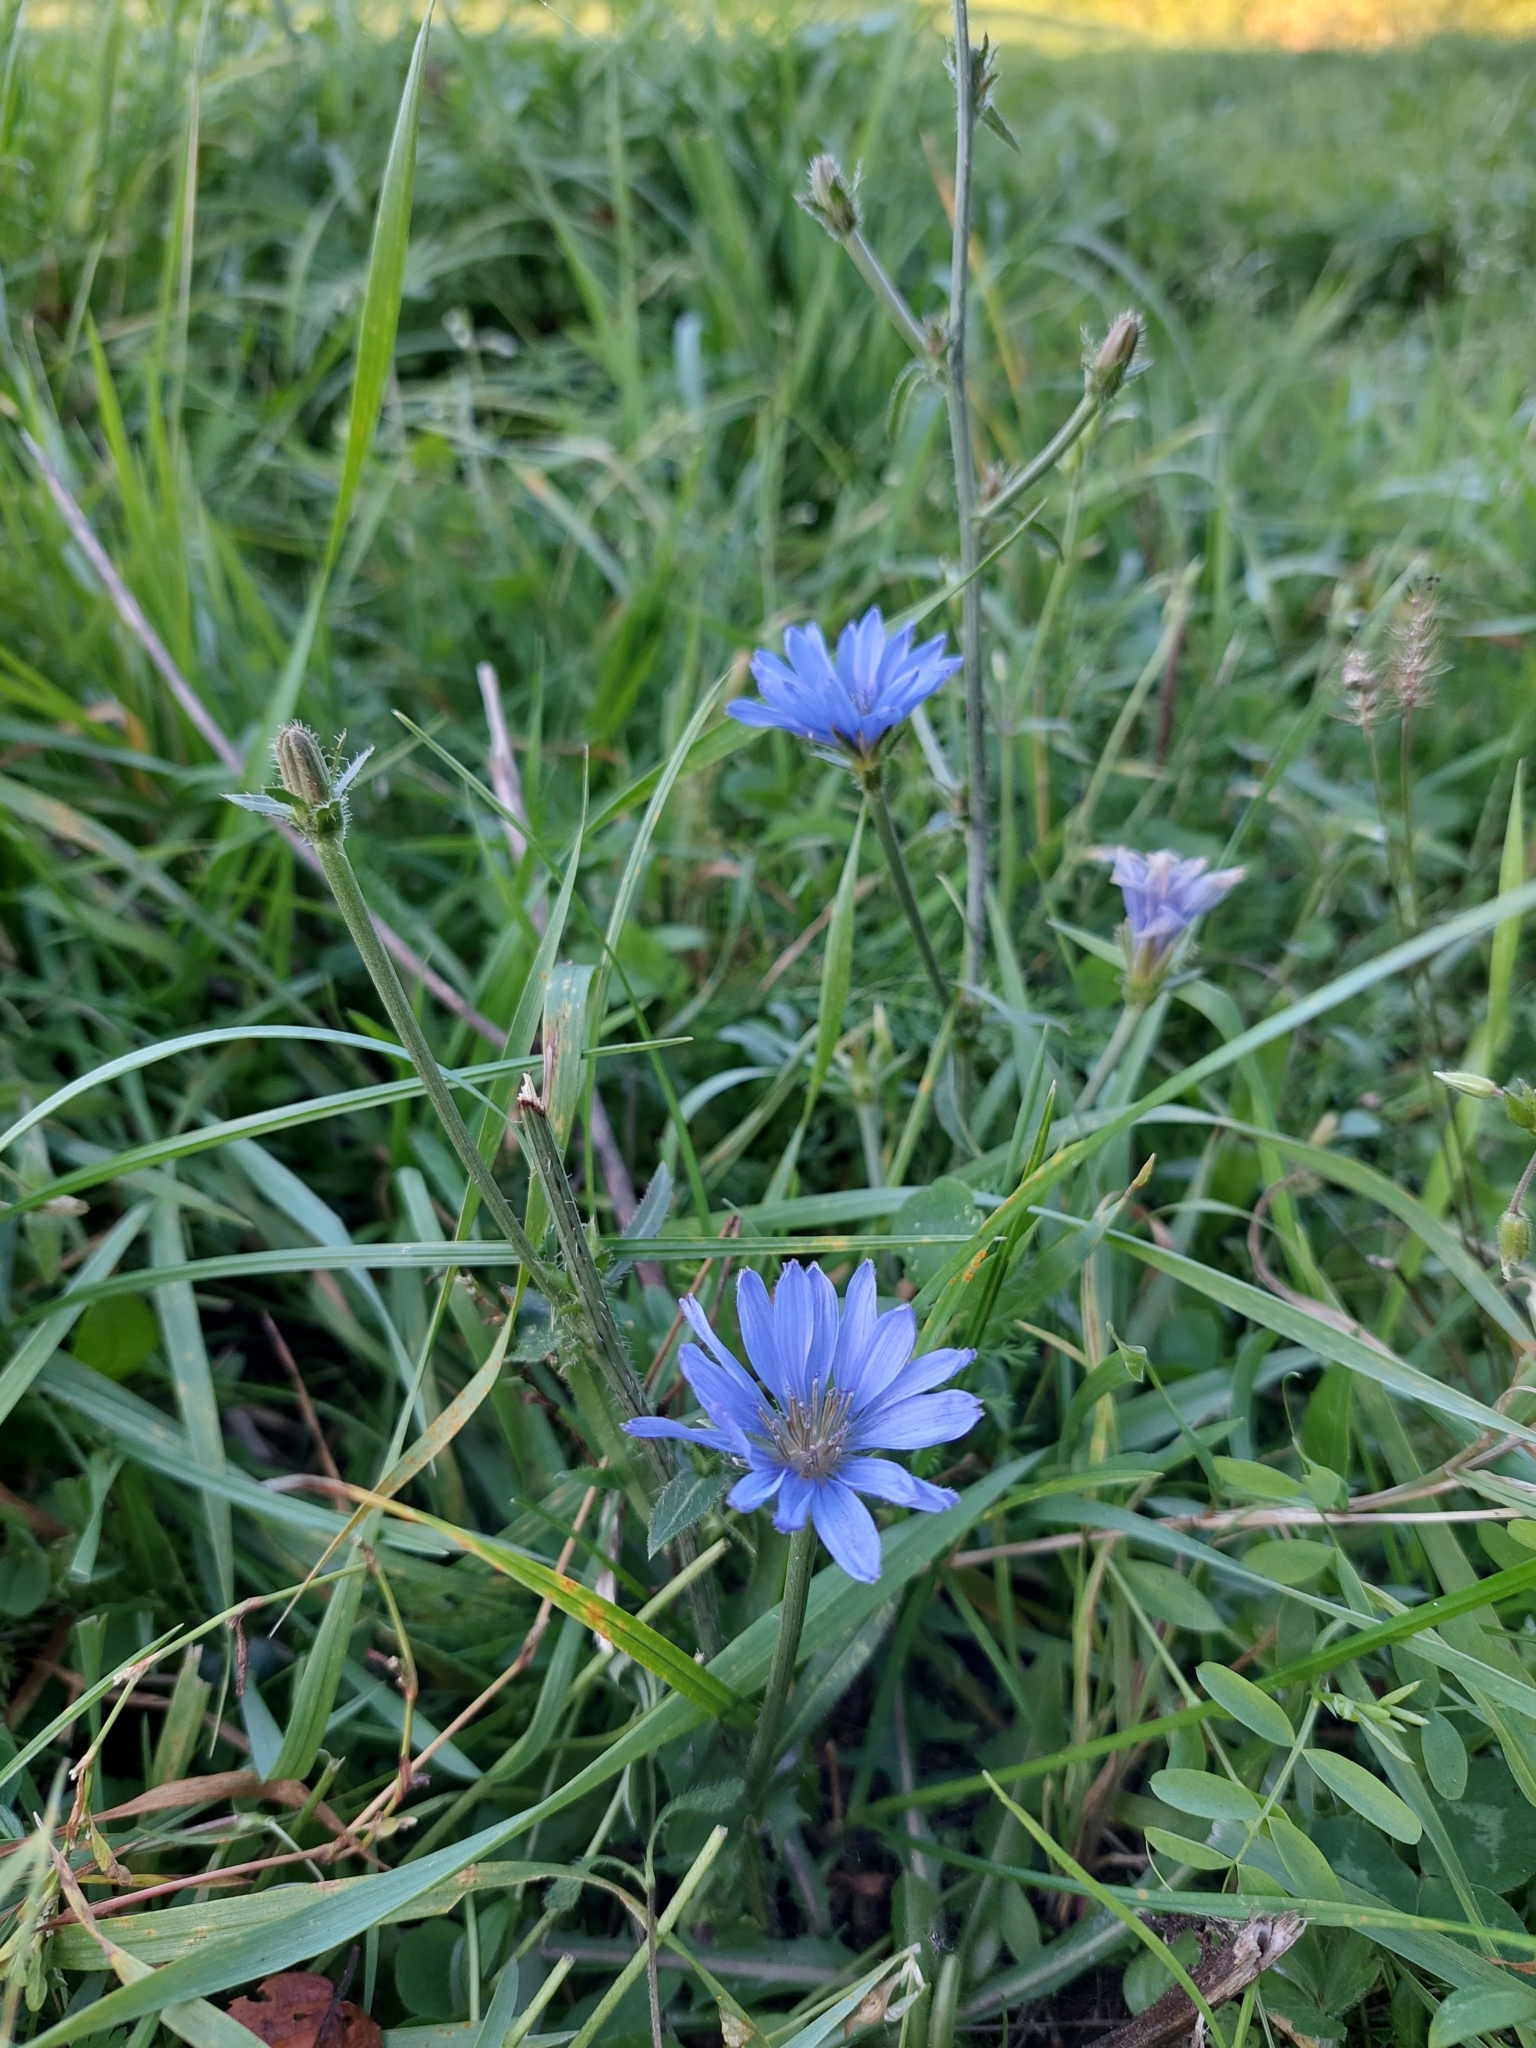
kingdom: Plantae
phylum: Tracheophyta
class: Magnoliopsida
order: Asterales
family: Asteraceae
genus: Cichorium
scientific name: Cichorium intybus
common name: Chicory
